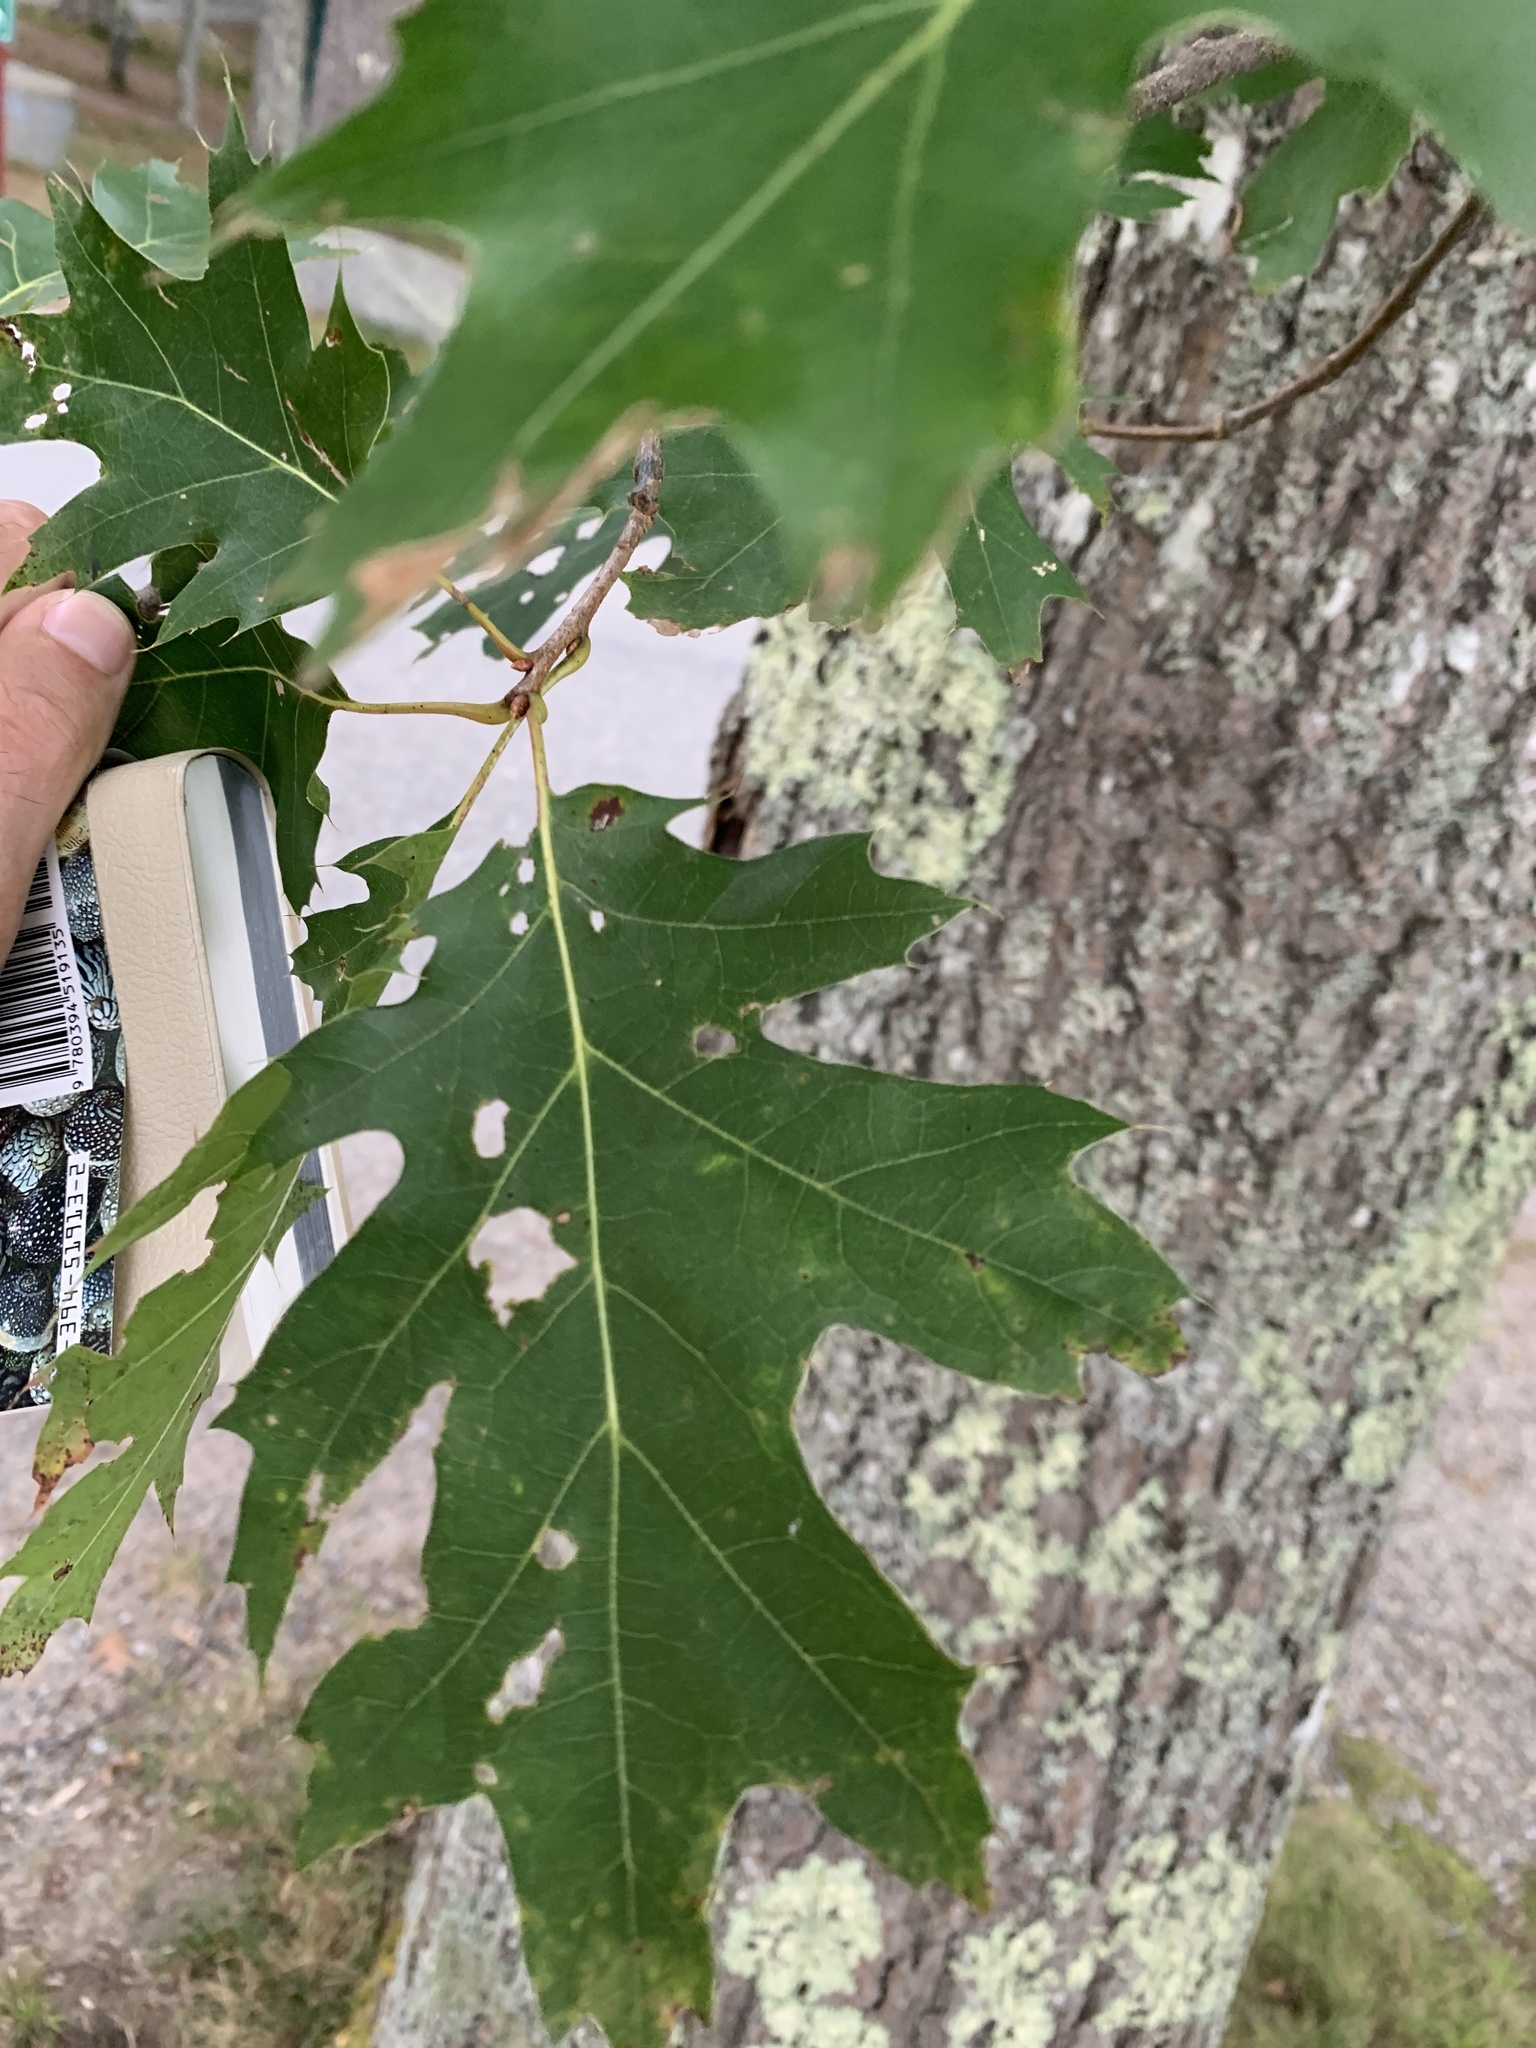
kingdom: Plantae
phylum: Tracheophyta
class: Magnoliopsida
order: Fagales
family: Fagaceae
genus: Quercus
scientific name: Quercus rubra
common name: Red oak
